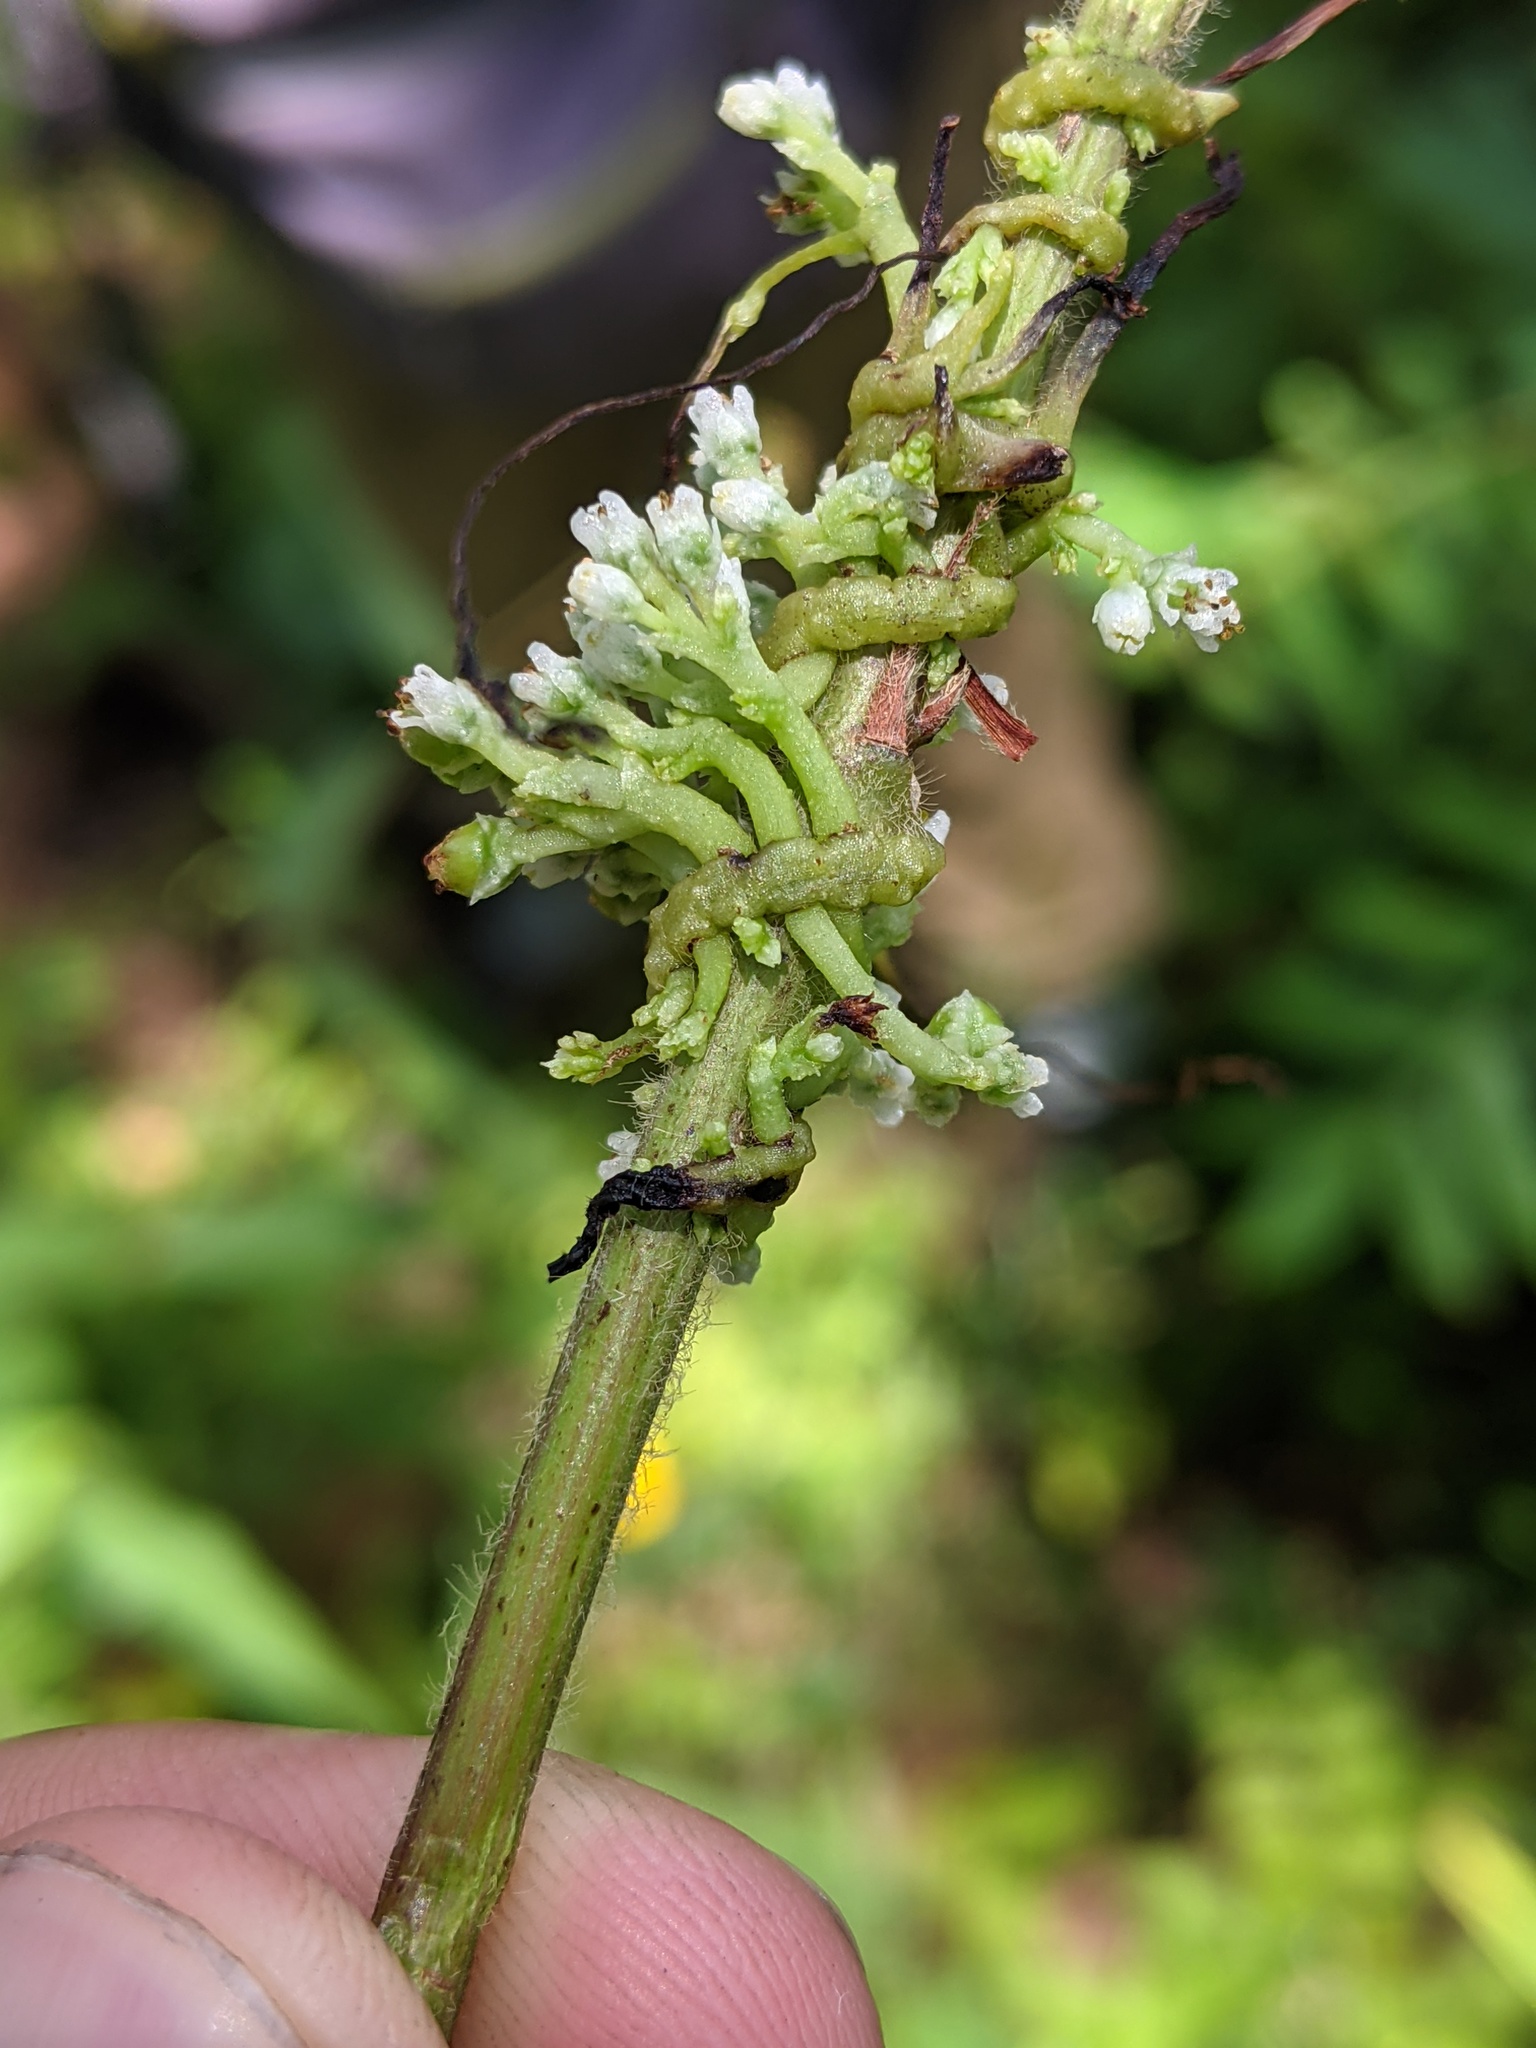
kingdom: Plantae
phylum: Tracheophyta
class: Magnoliopsida
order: Solanales
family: Convolvulaceae
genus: Cuscuta
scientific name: Cuscuta coryli
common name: Hazel dodder
